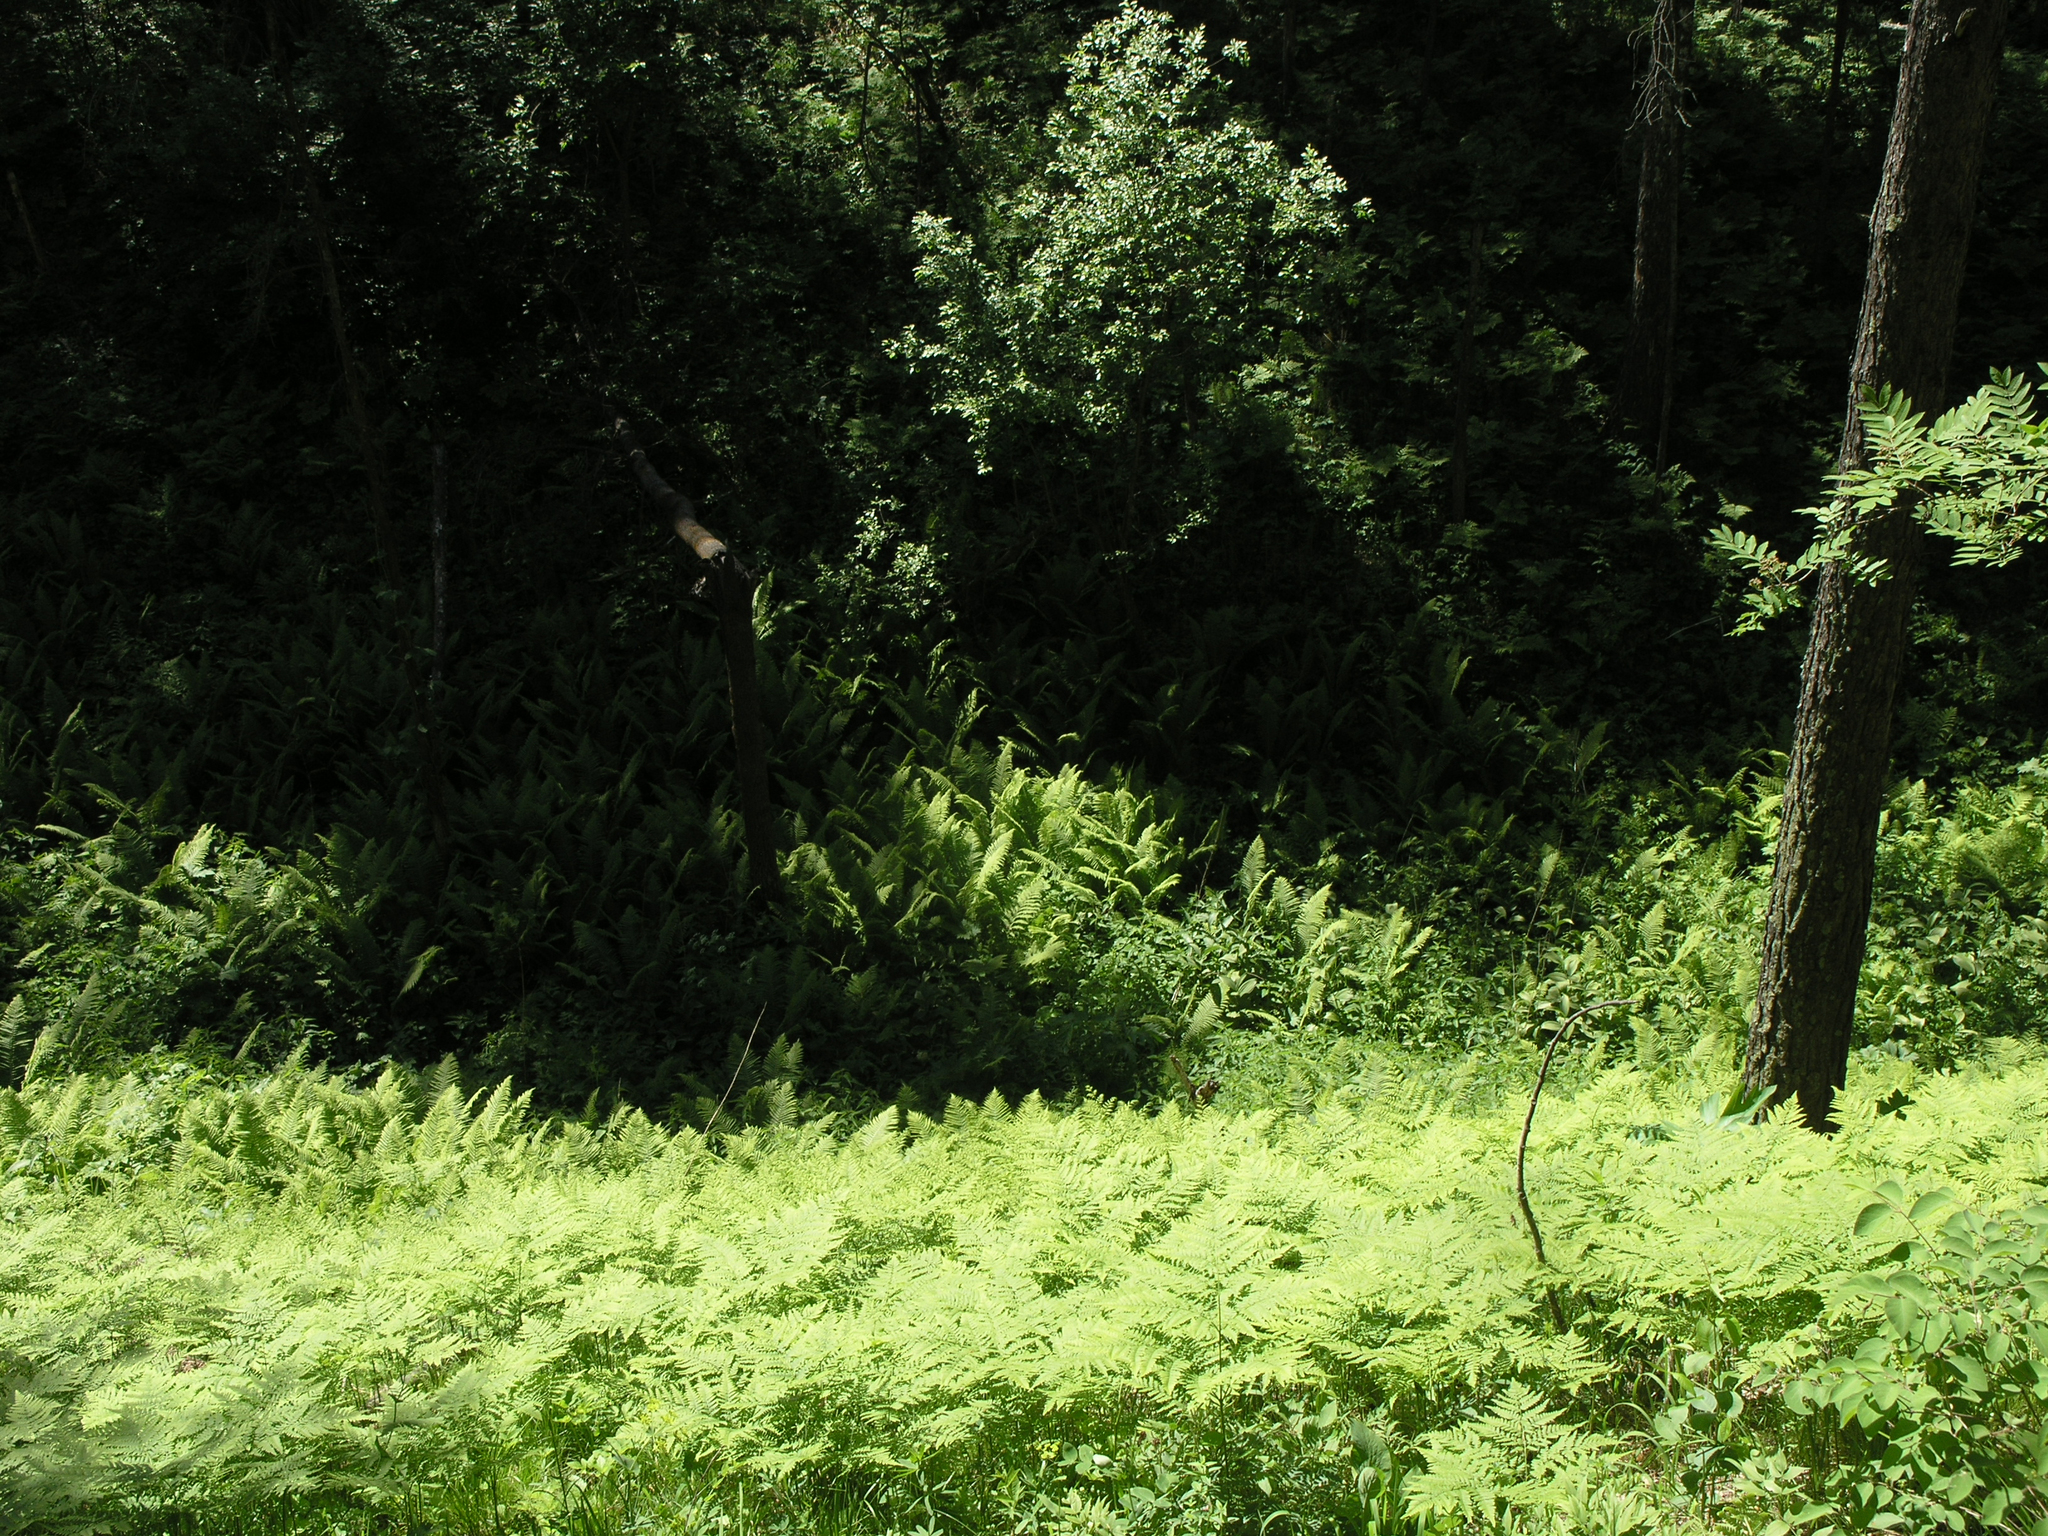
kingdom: Plantae
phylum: Tracheophyta
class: Polypodiopsida
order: Polypodiales
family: Dennstaedtiaceae
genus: Pteridium
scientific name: Pteridium aquilinum
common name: Bracken
